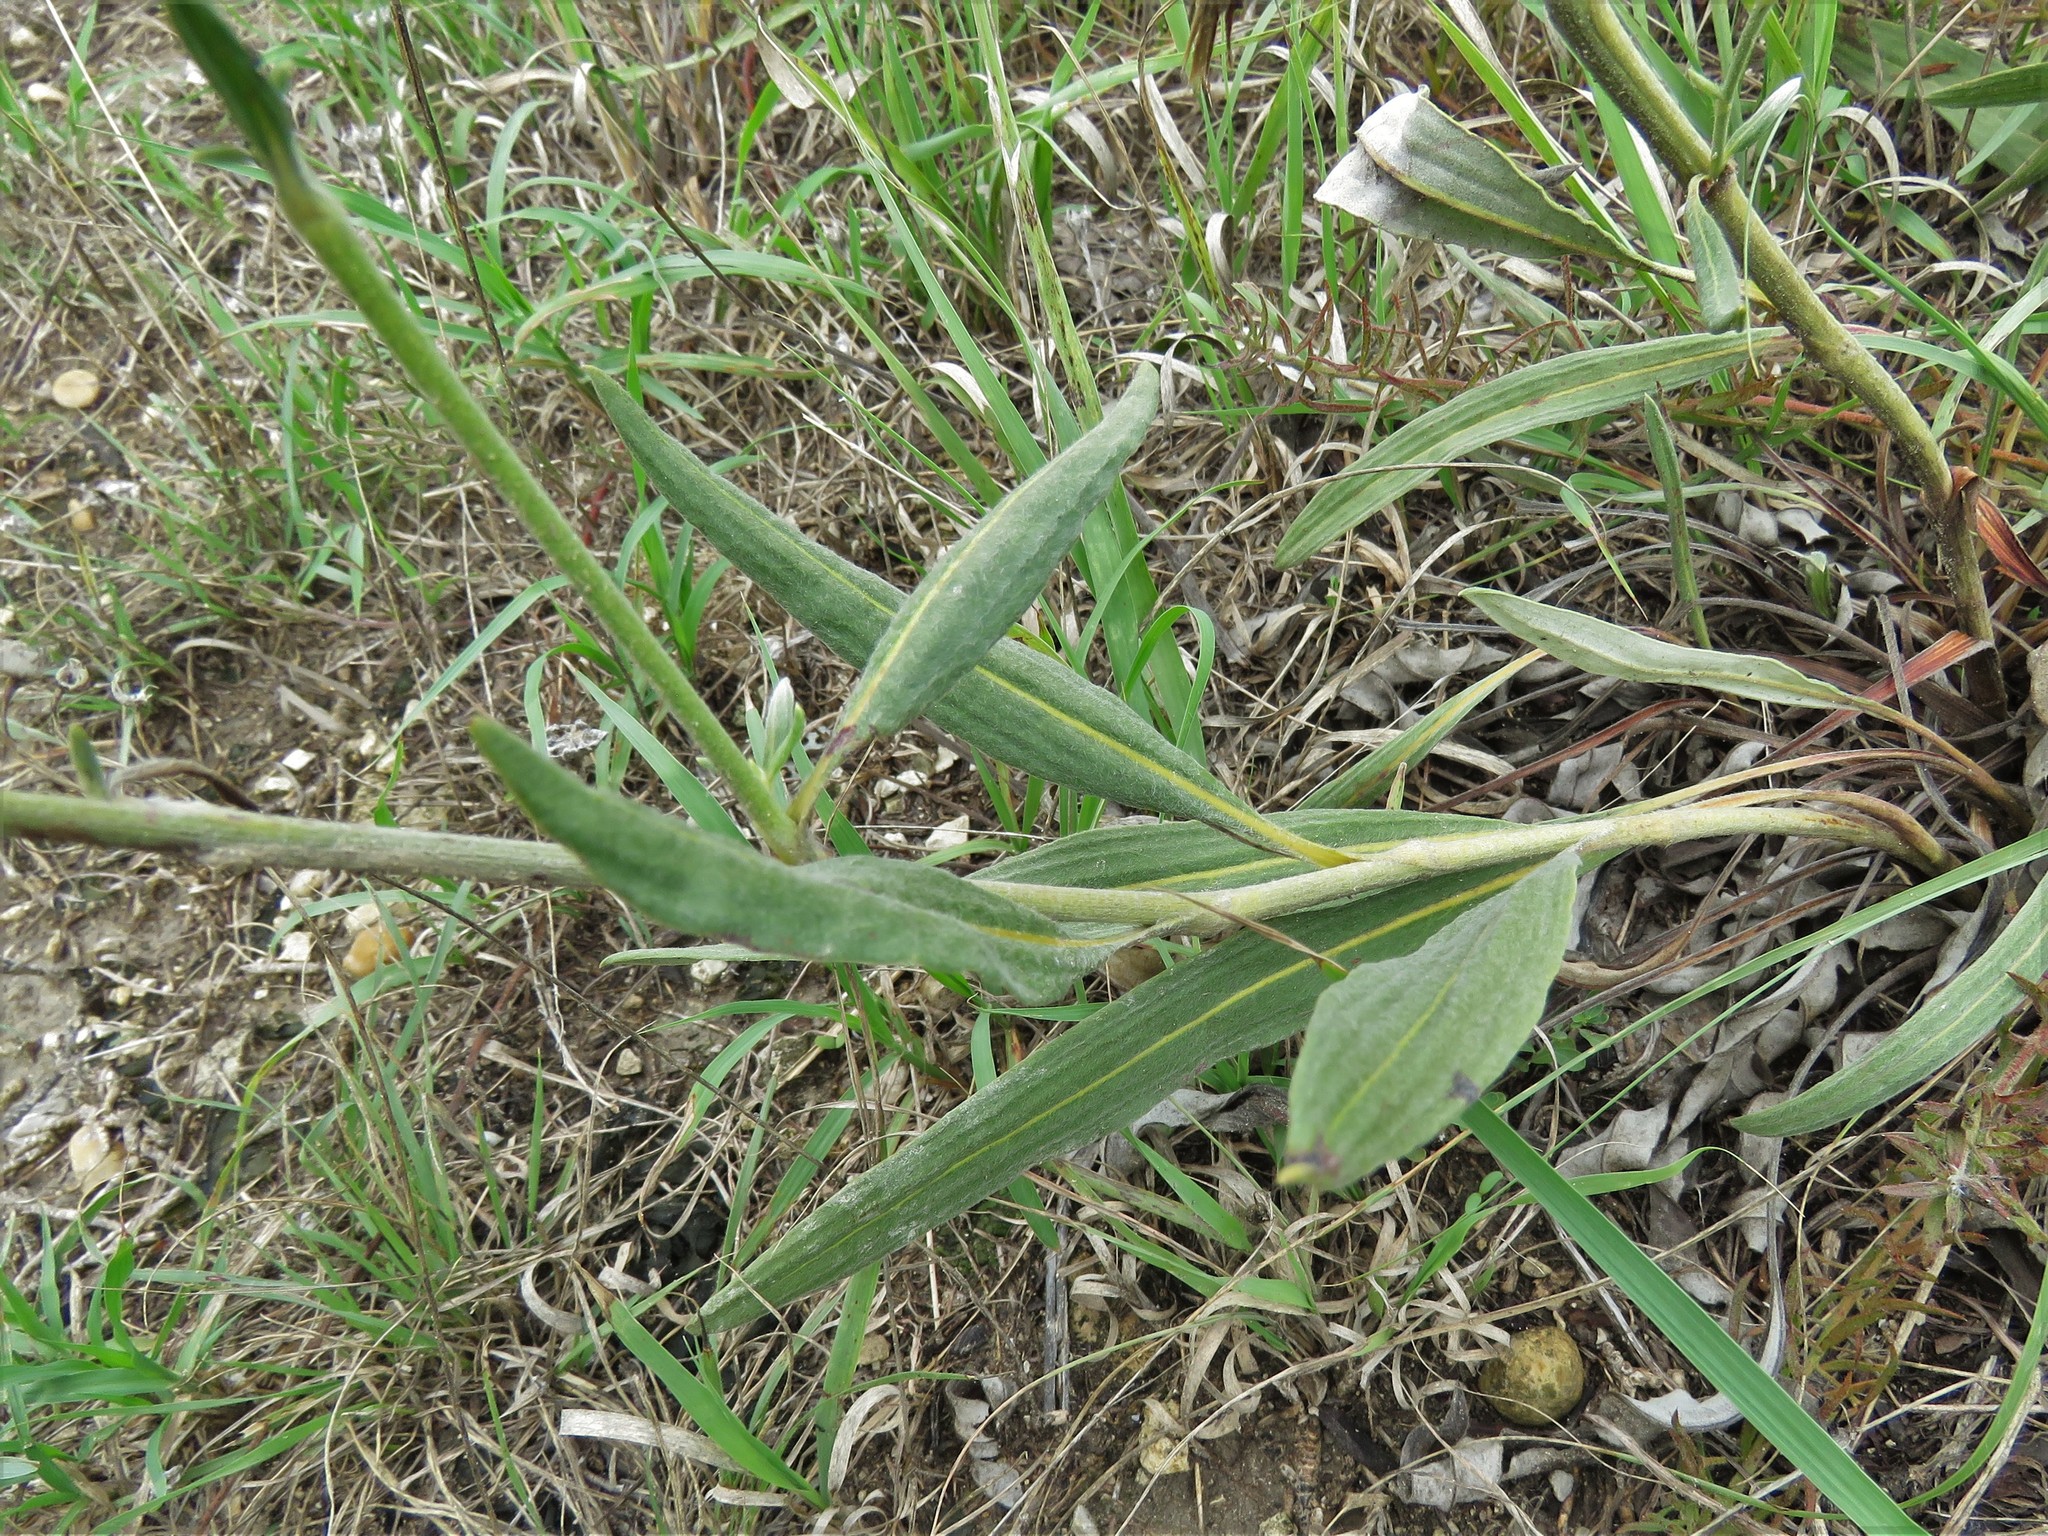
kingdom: Plantae
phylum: Tracheophyta
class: Magnoliopsida
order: Caryophyllales
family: Polygonaceae
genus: Eriogonum
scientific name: Eriogonum longifolium
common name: Longleaf wild buckwheat
